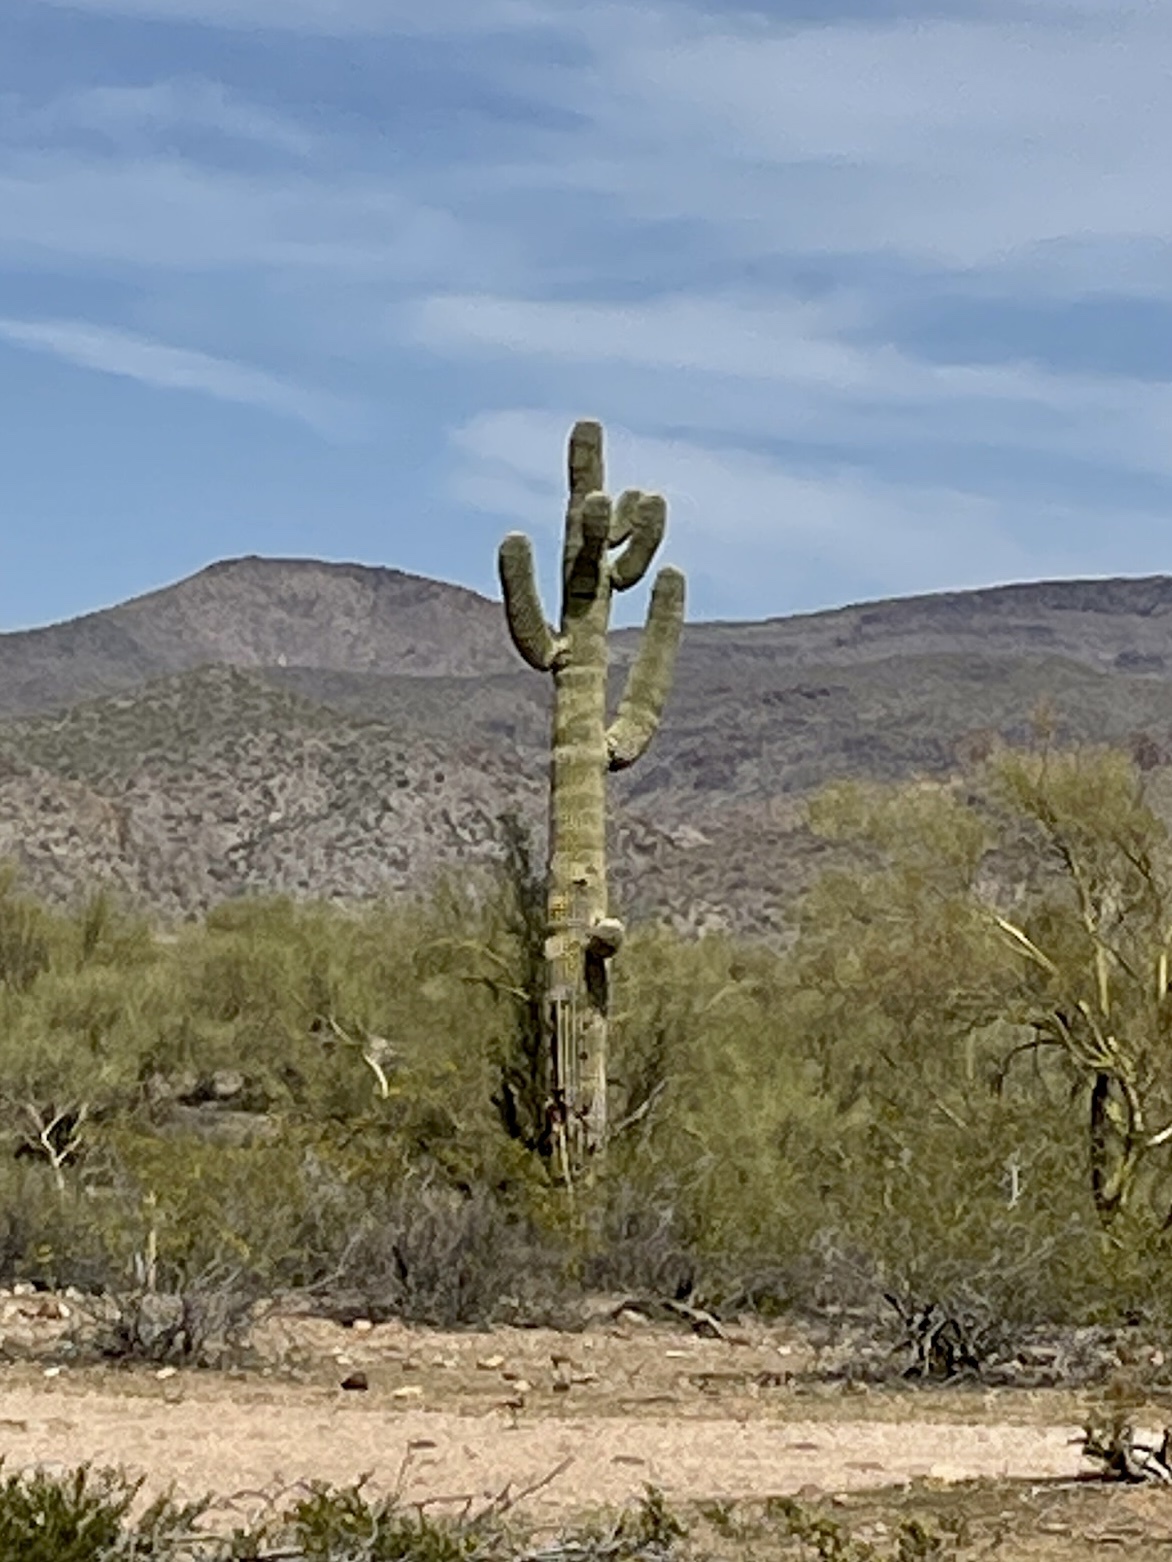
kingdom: Plantae
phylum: Tracheophyta
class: Magnoliopsida
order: Caryophyllales
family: Cactaceae
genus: Carnegiea
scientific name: Carnegiea gigantea
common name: Saguaro
